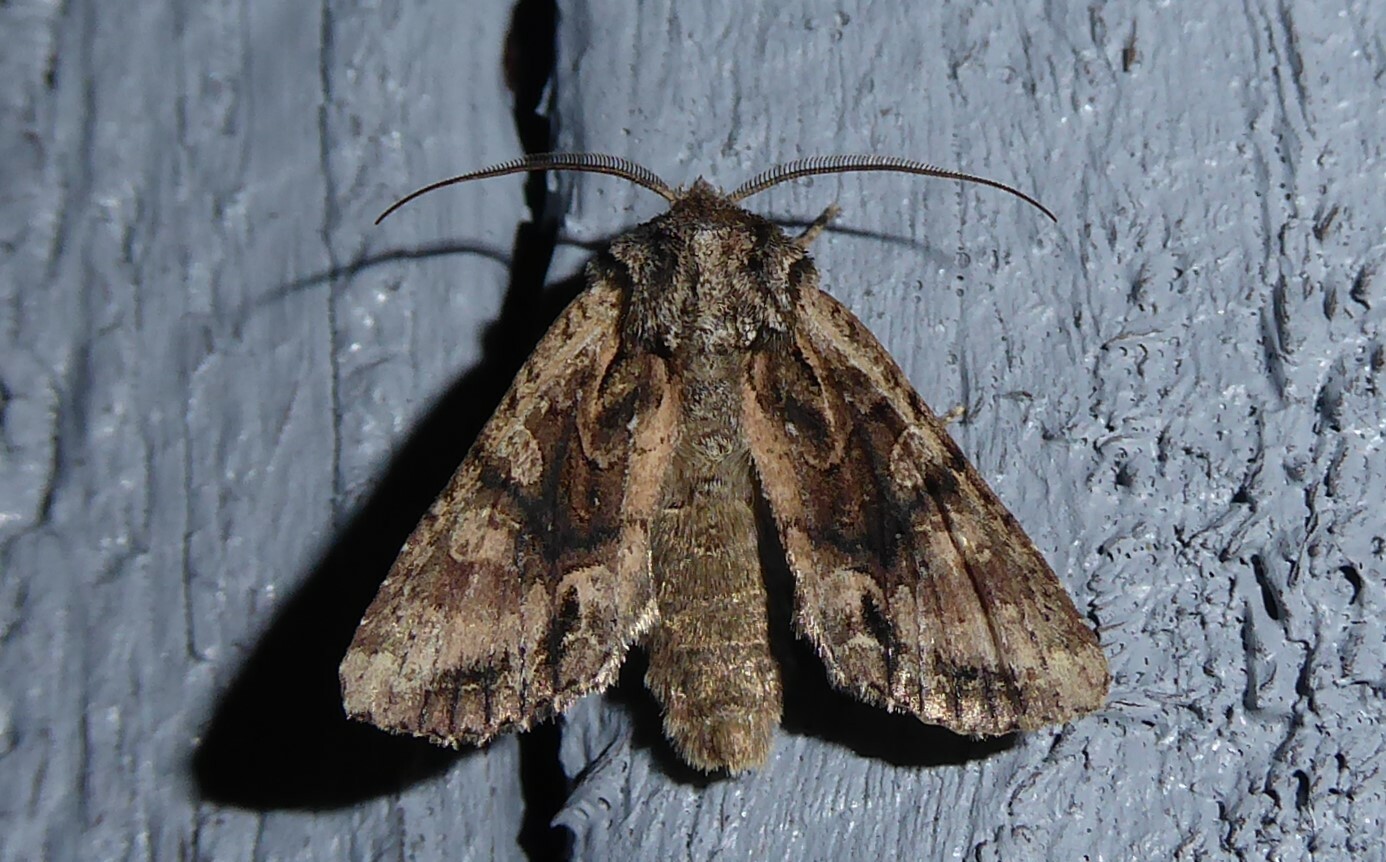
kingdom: Animalia
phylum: Arthropoda
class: Insecta
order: Lepidoptera
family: Noctuidae
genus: Ichneutica
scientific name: Ichneutica mutans
